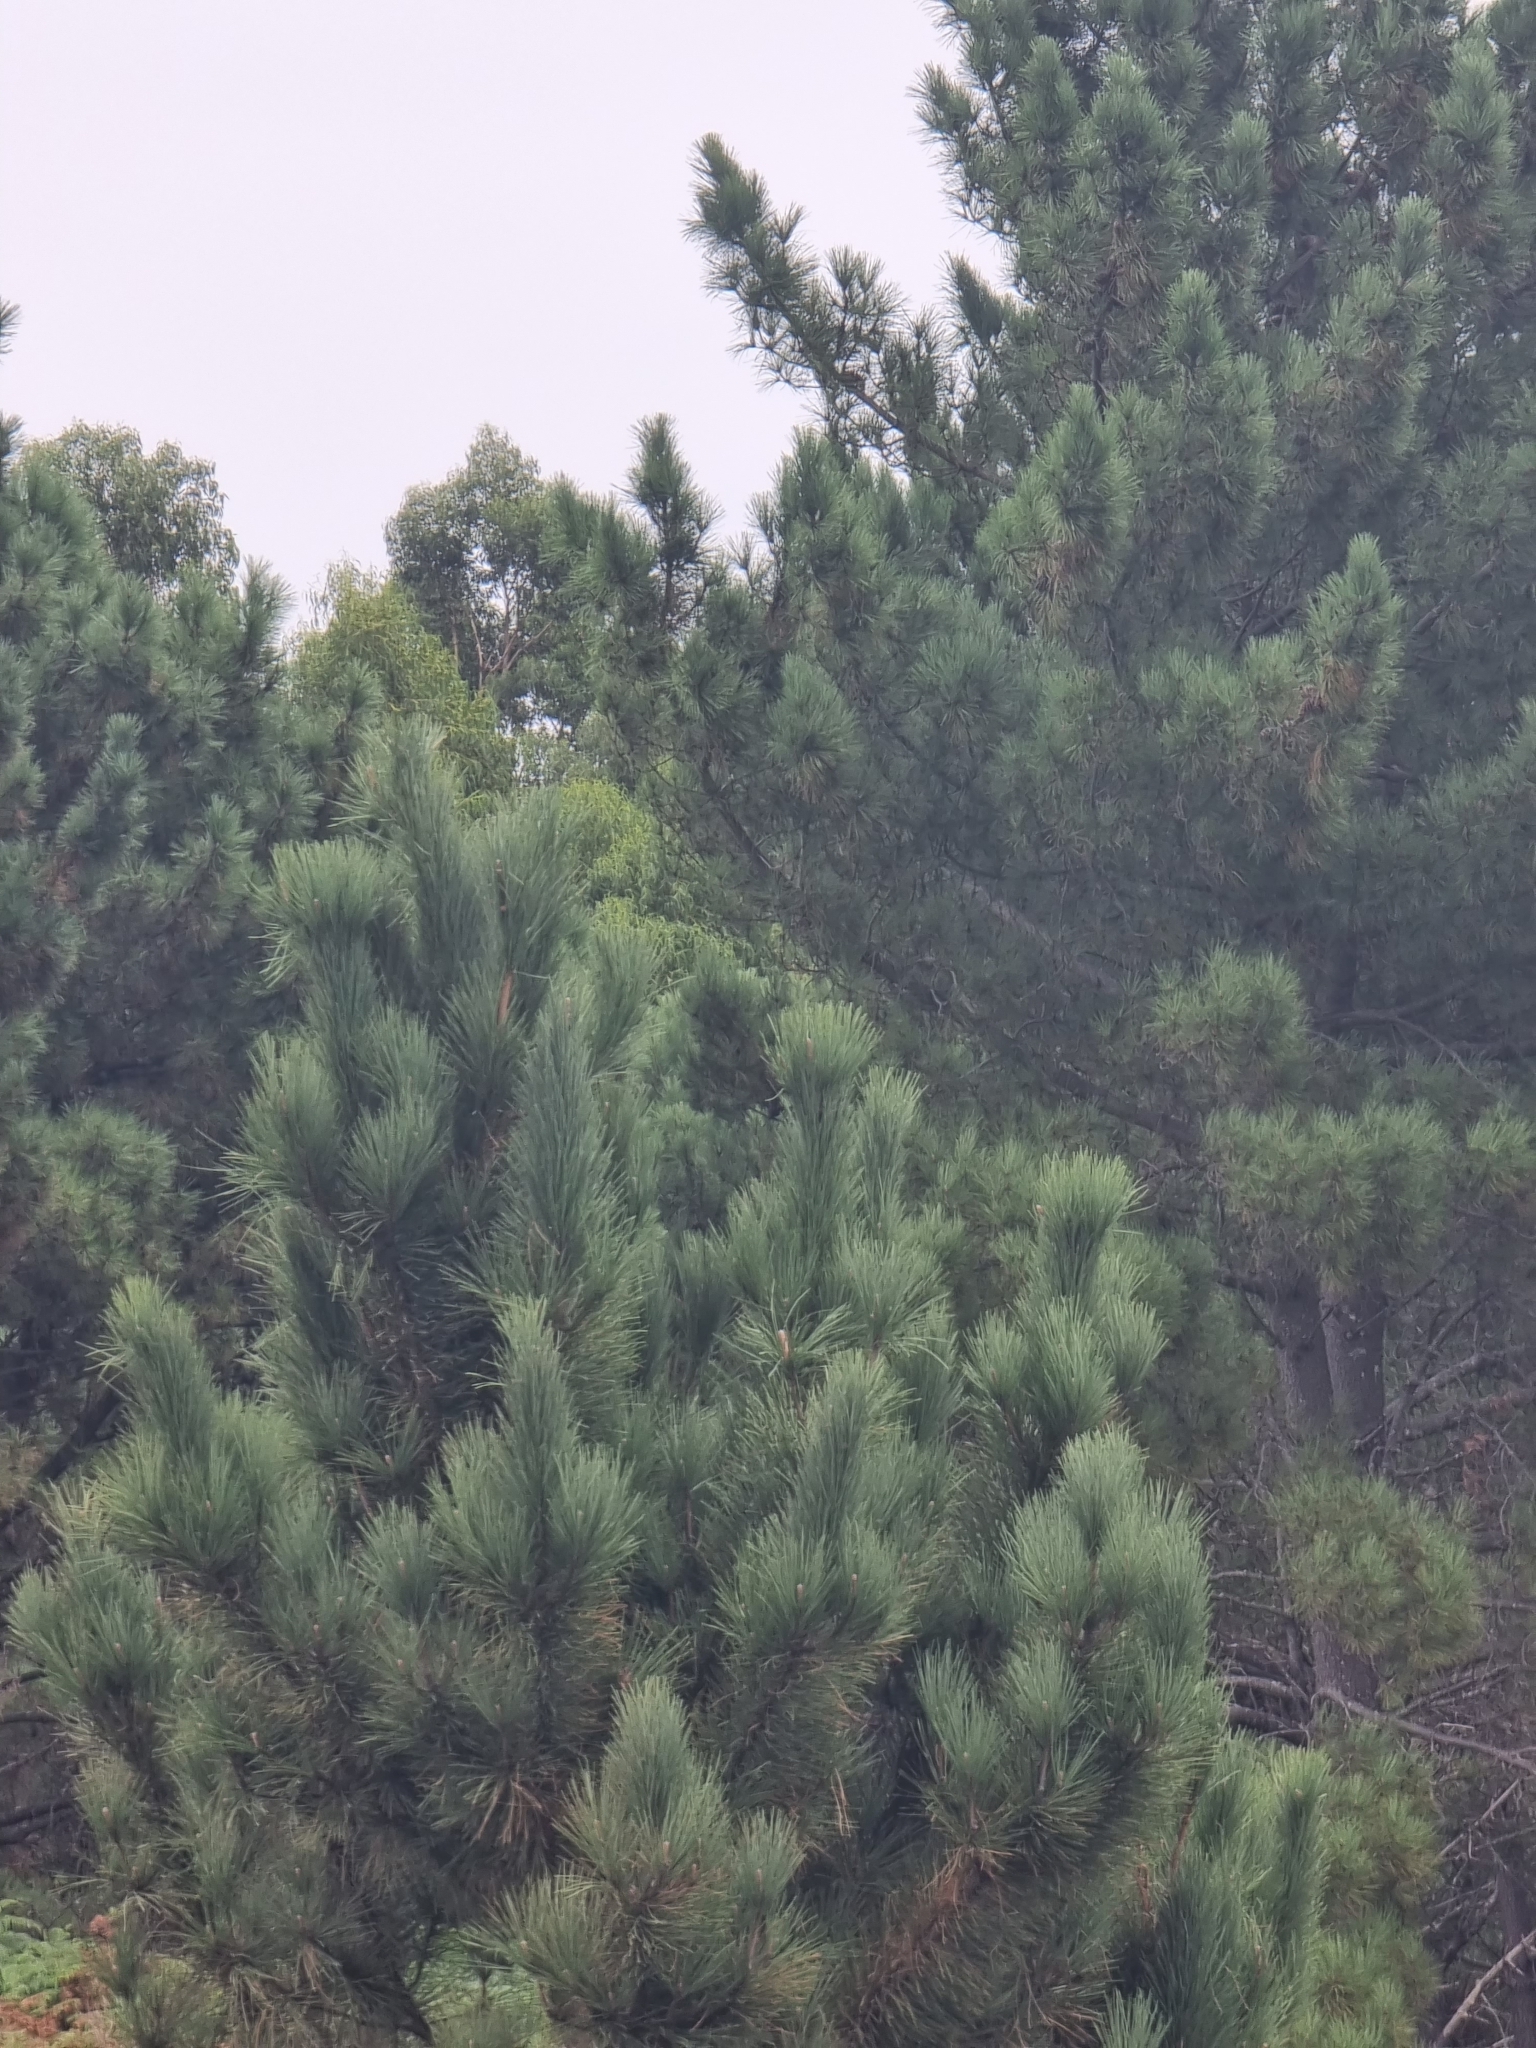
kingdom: Plantae
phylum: Tracheophyta
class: Pinopsida
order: Pinales
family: Pinaceae
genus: Pinus
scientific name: Pinus pinaster
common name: Maritime pine
